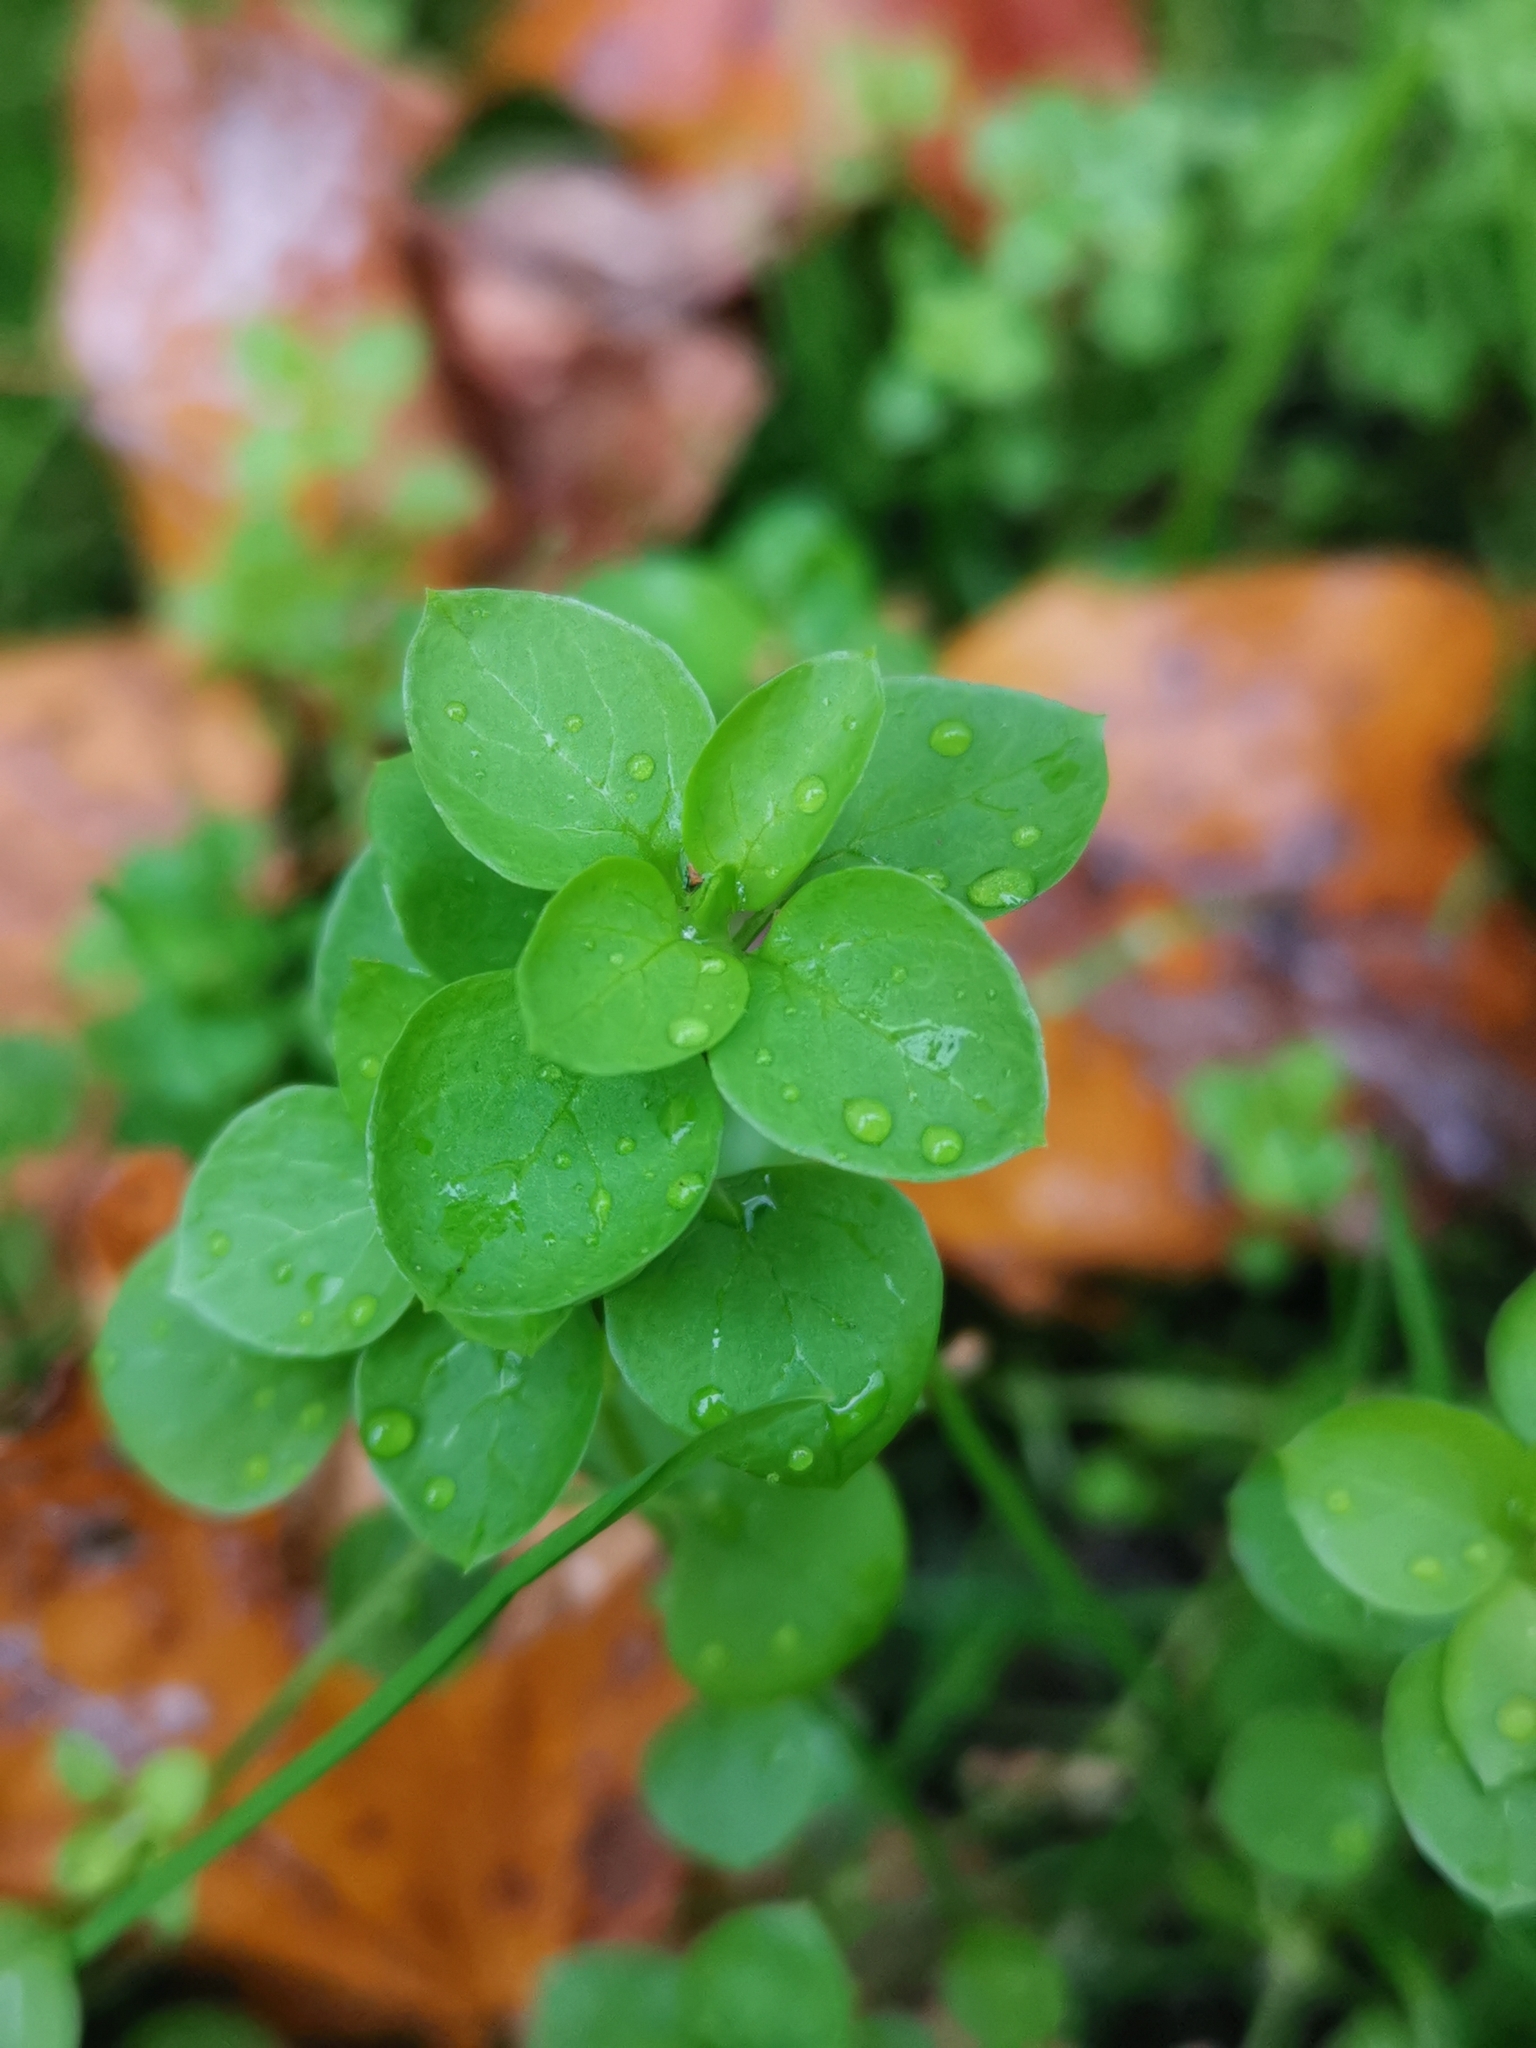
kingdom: Plantae
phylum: Tracheophyta
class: Magnoliopsida
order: Caryophyllales
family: Caryophyllaceae
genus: Stellaria
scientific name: Stellaria media
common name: Common chickweed
